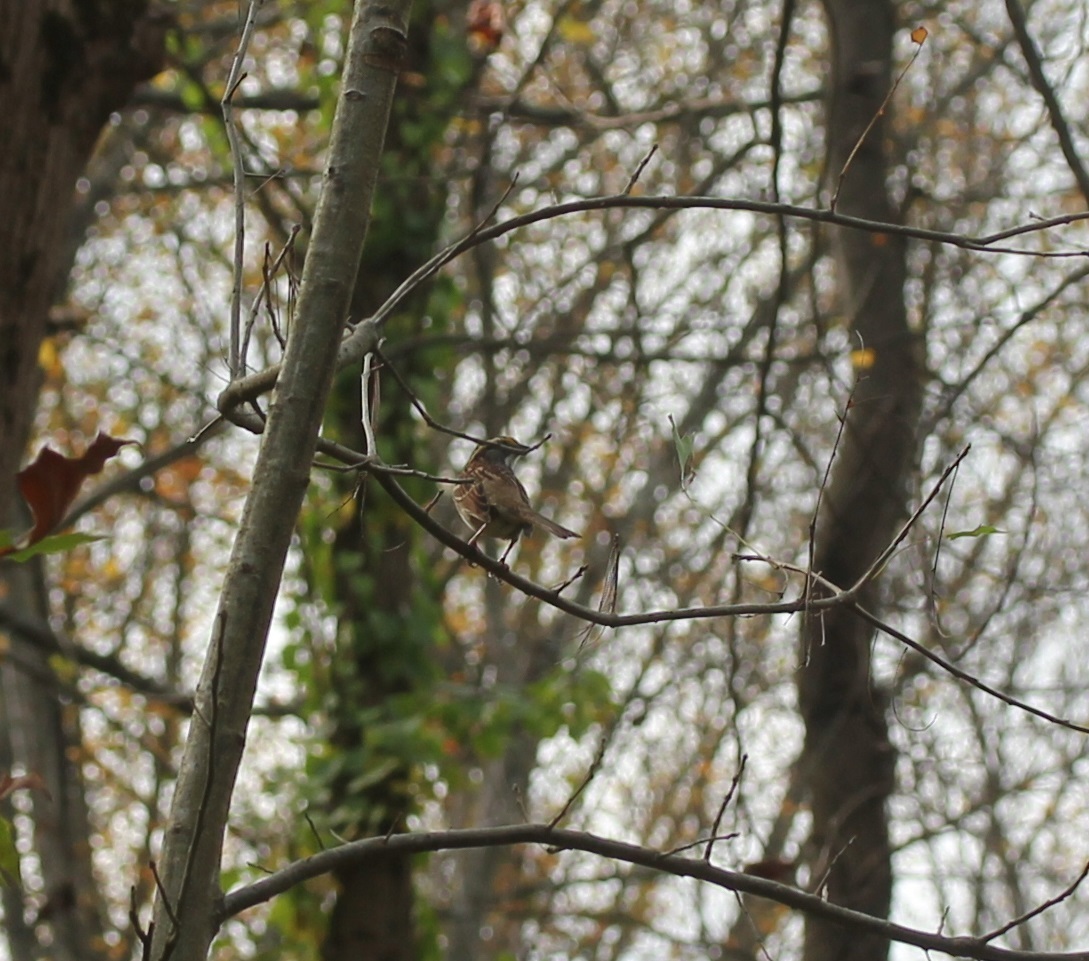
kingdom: Animalia
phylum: Chordata
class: Aves
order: Passeriformes
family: Passerellidae
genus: Zonotrichia
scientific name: Zonotrichia albicollis
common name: White-throated sparrow
